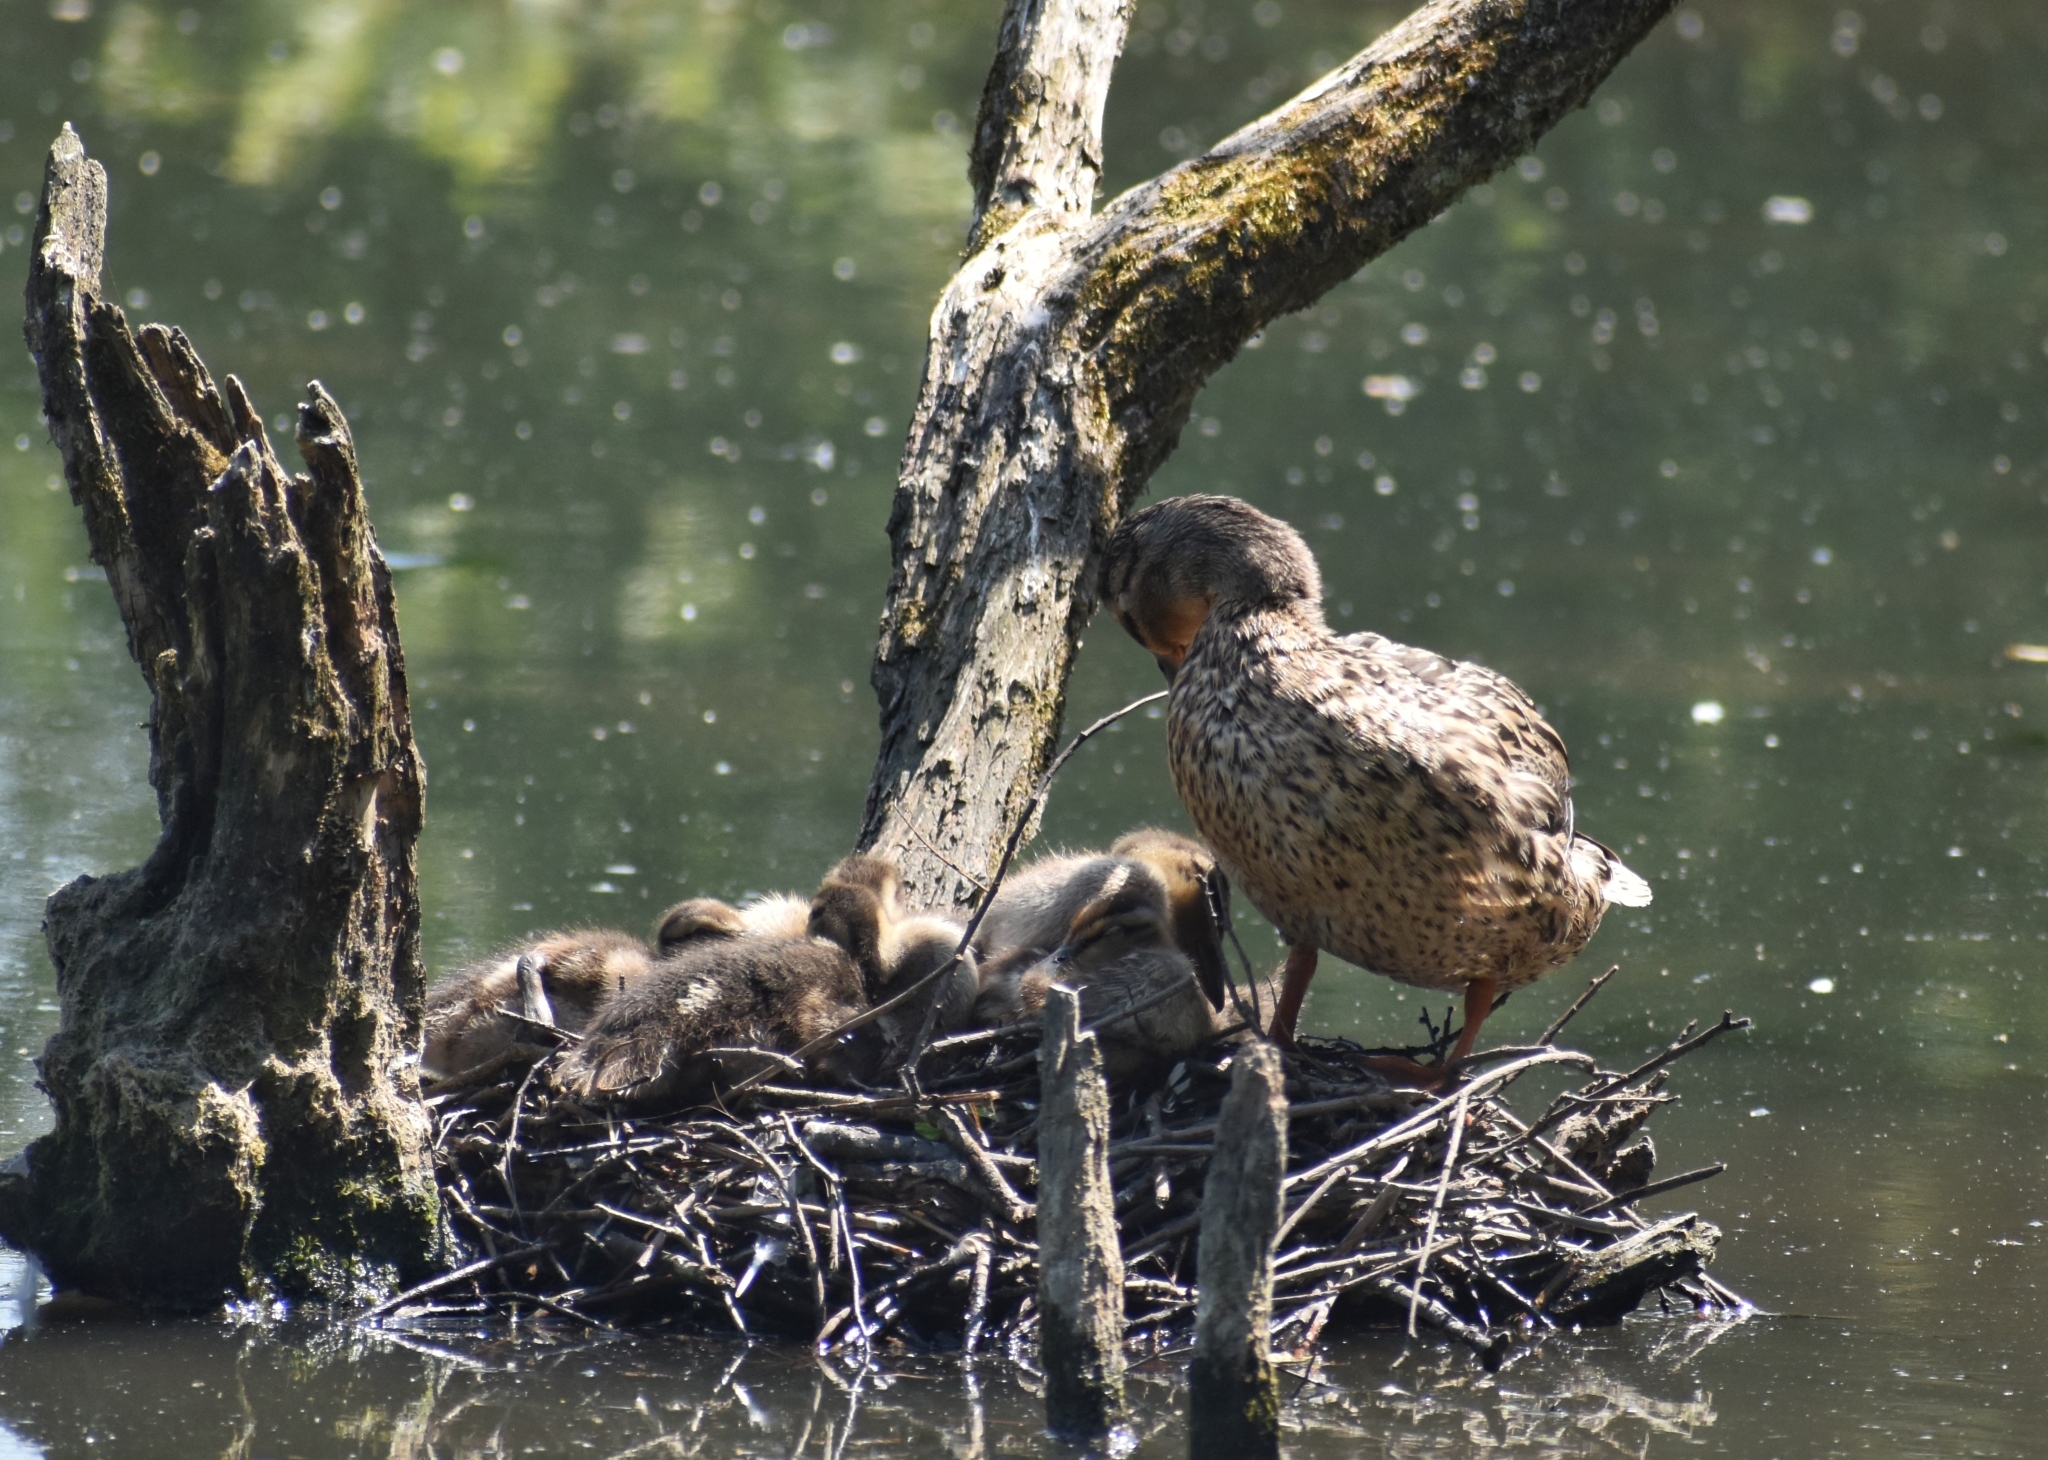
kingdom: Animalia
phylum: Chordata
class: Aves
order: Anseriformes
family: Anatidae
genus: Anas
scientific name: Anas platyrhynchos
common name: Mallard
